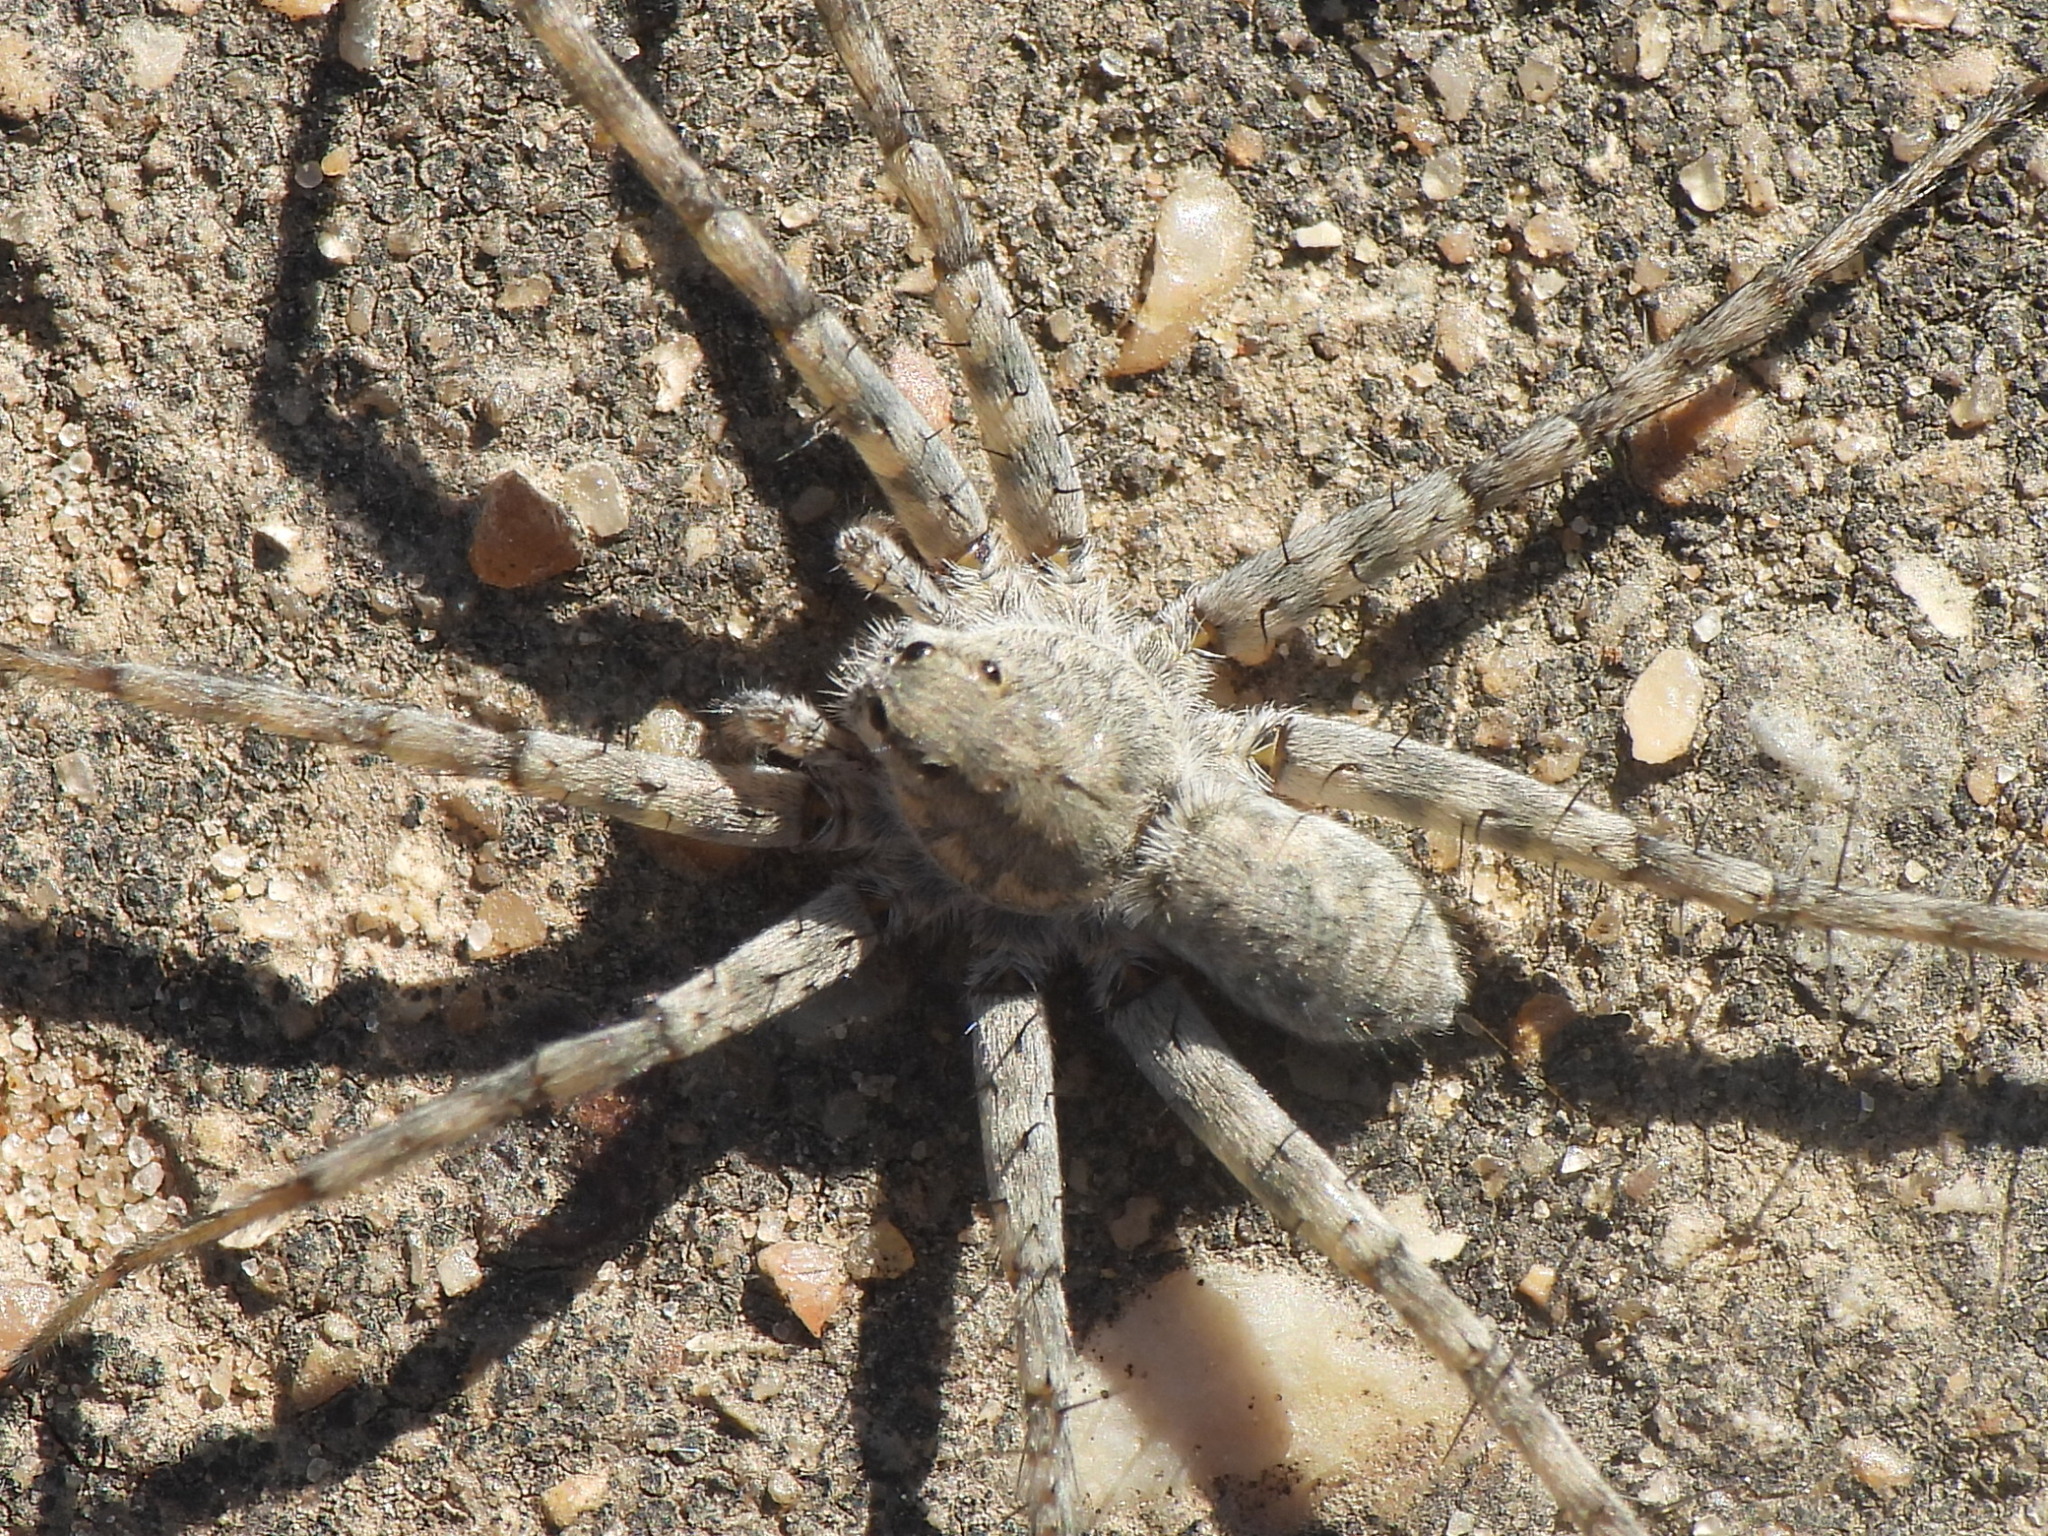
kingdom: Animalia
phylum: Arthropoda
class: Arachnida
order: Araneae
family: Lycosidae
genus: Pardosa
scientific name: Pardosa mercurialis
